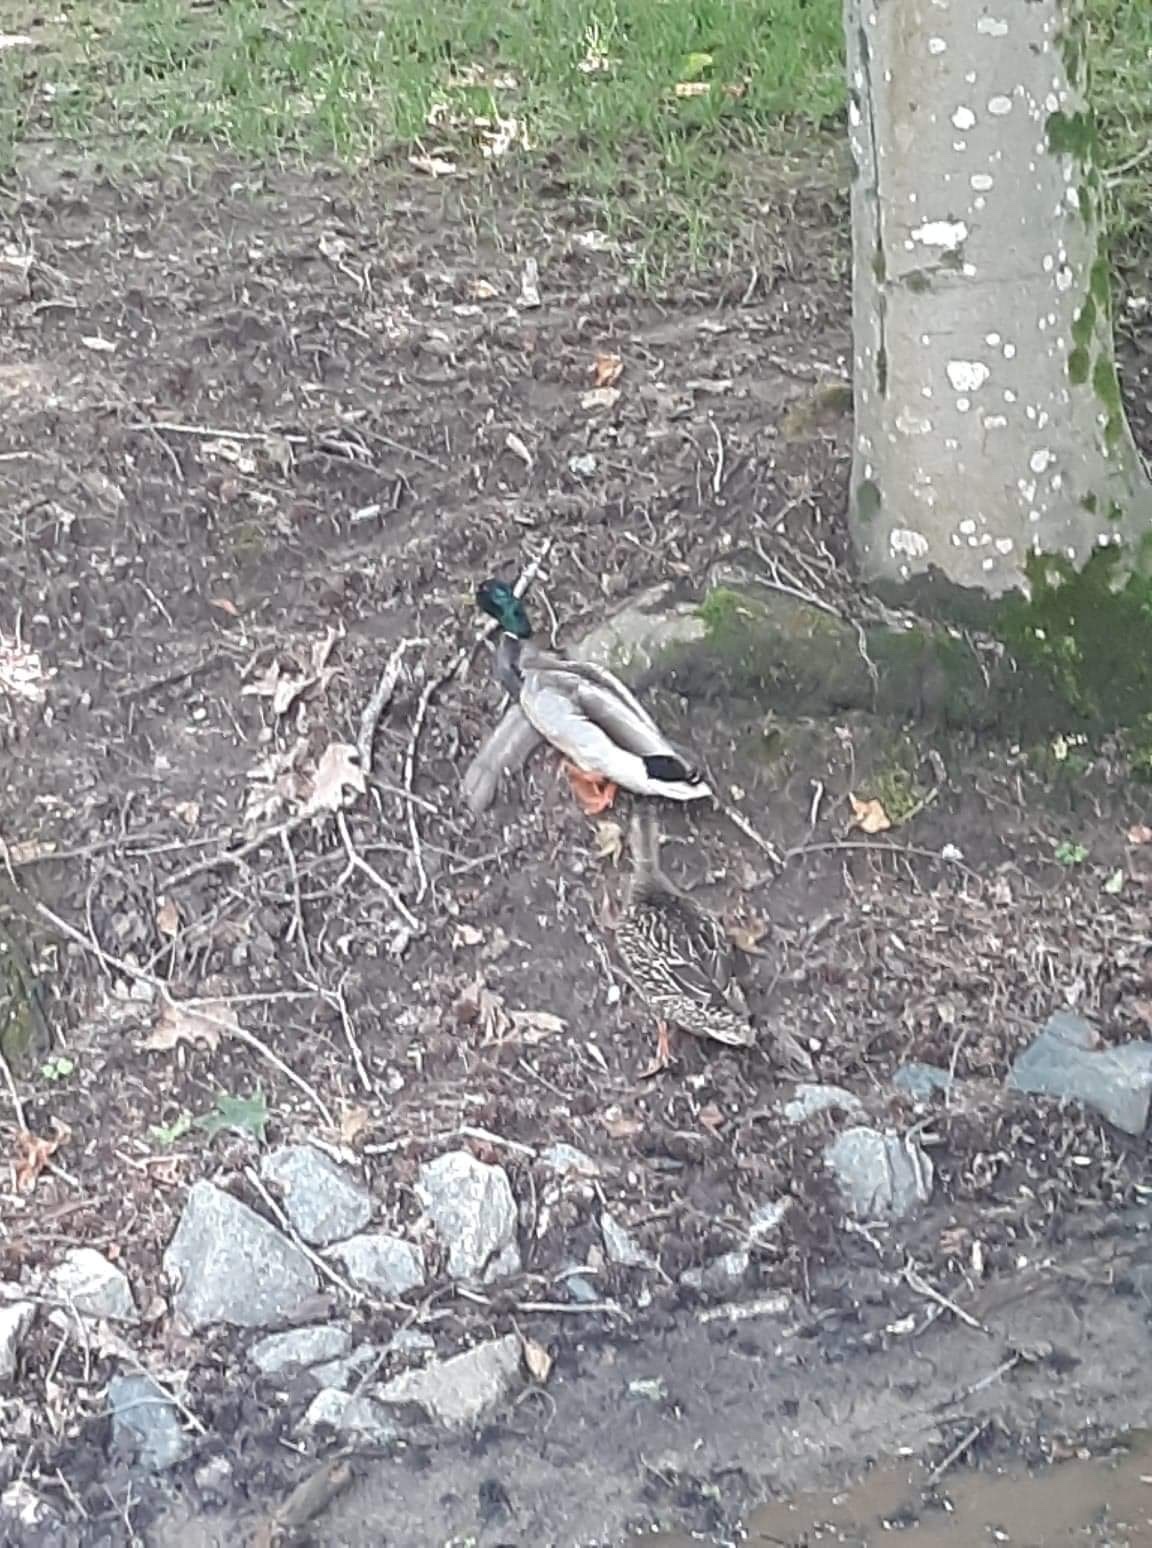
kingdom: Animalia
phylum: Chordata
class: Aves
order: Anseriformes
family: Anatidae
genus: Anas
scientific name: Anas platyrhynchos
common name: Mallard
